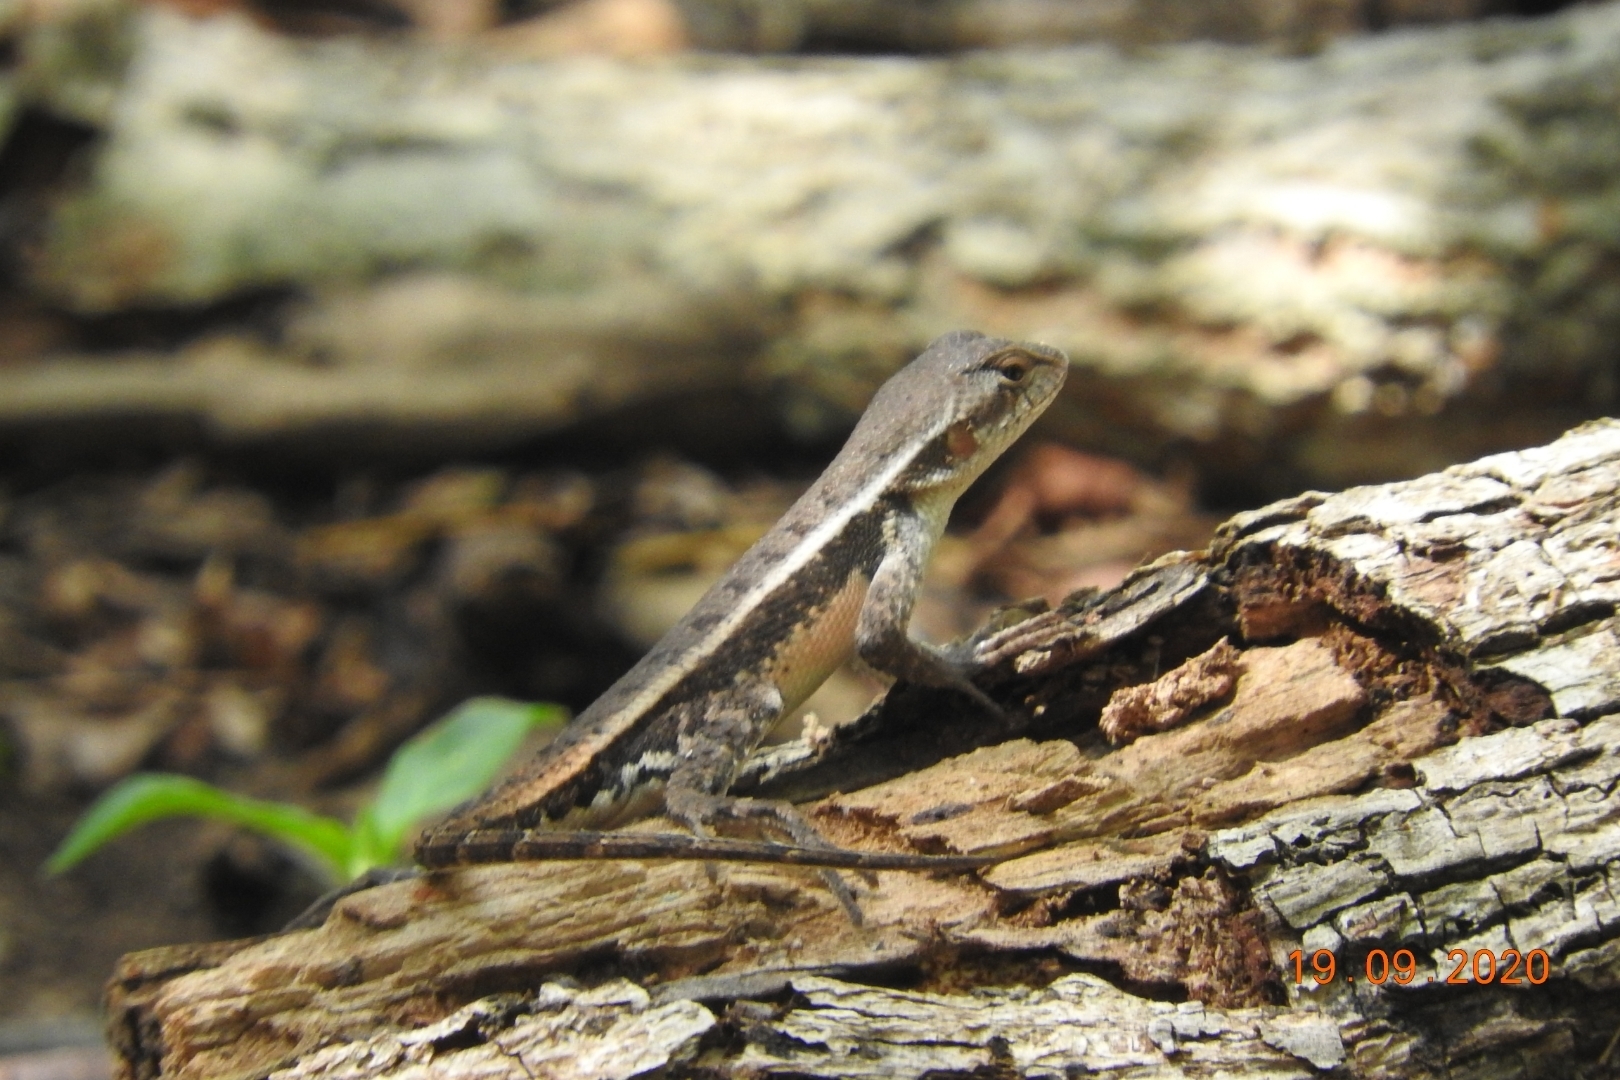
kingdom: Animalia
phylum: Chordata
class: Squamata
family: Phrynosomatidae
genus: Sceloporus
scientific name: Sceloporus chrysostictus
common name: Yellow-spotted spiny lizard
